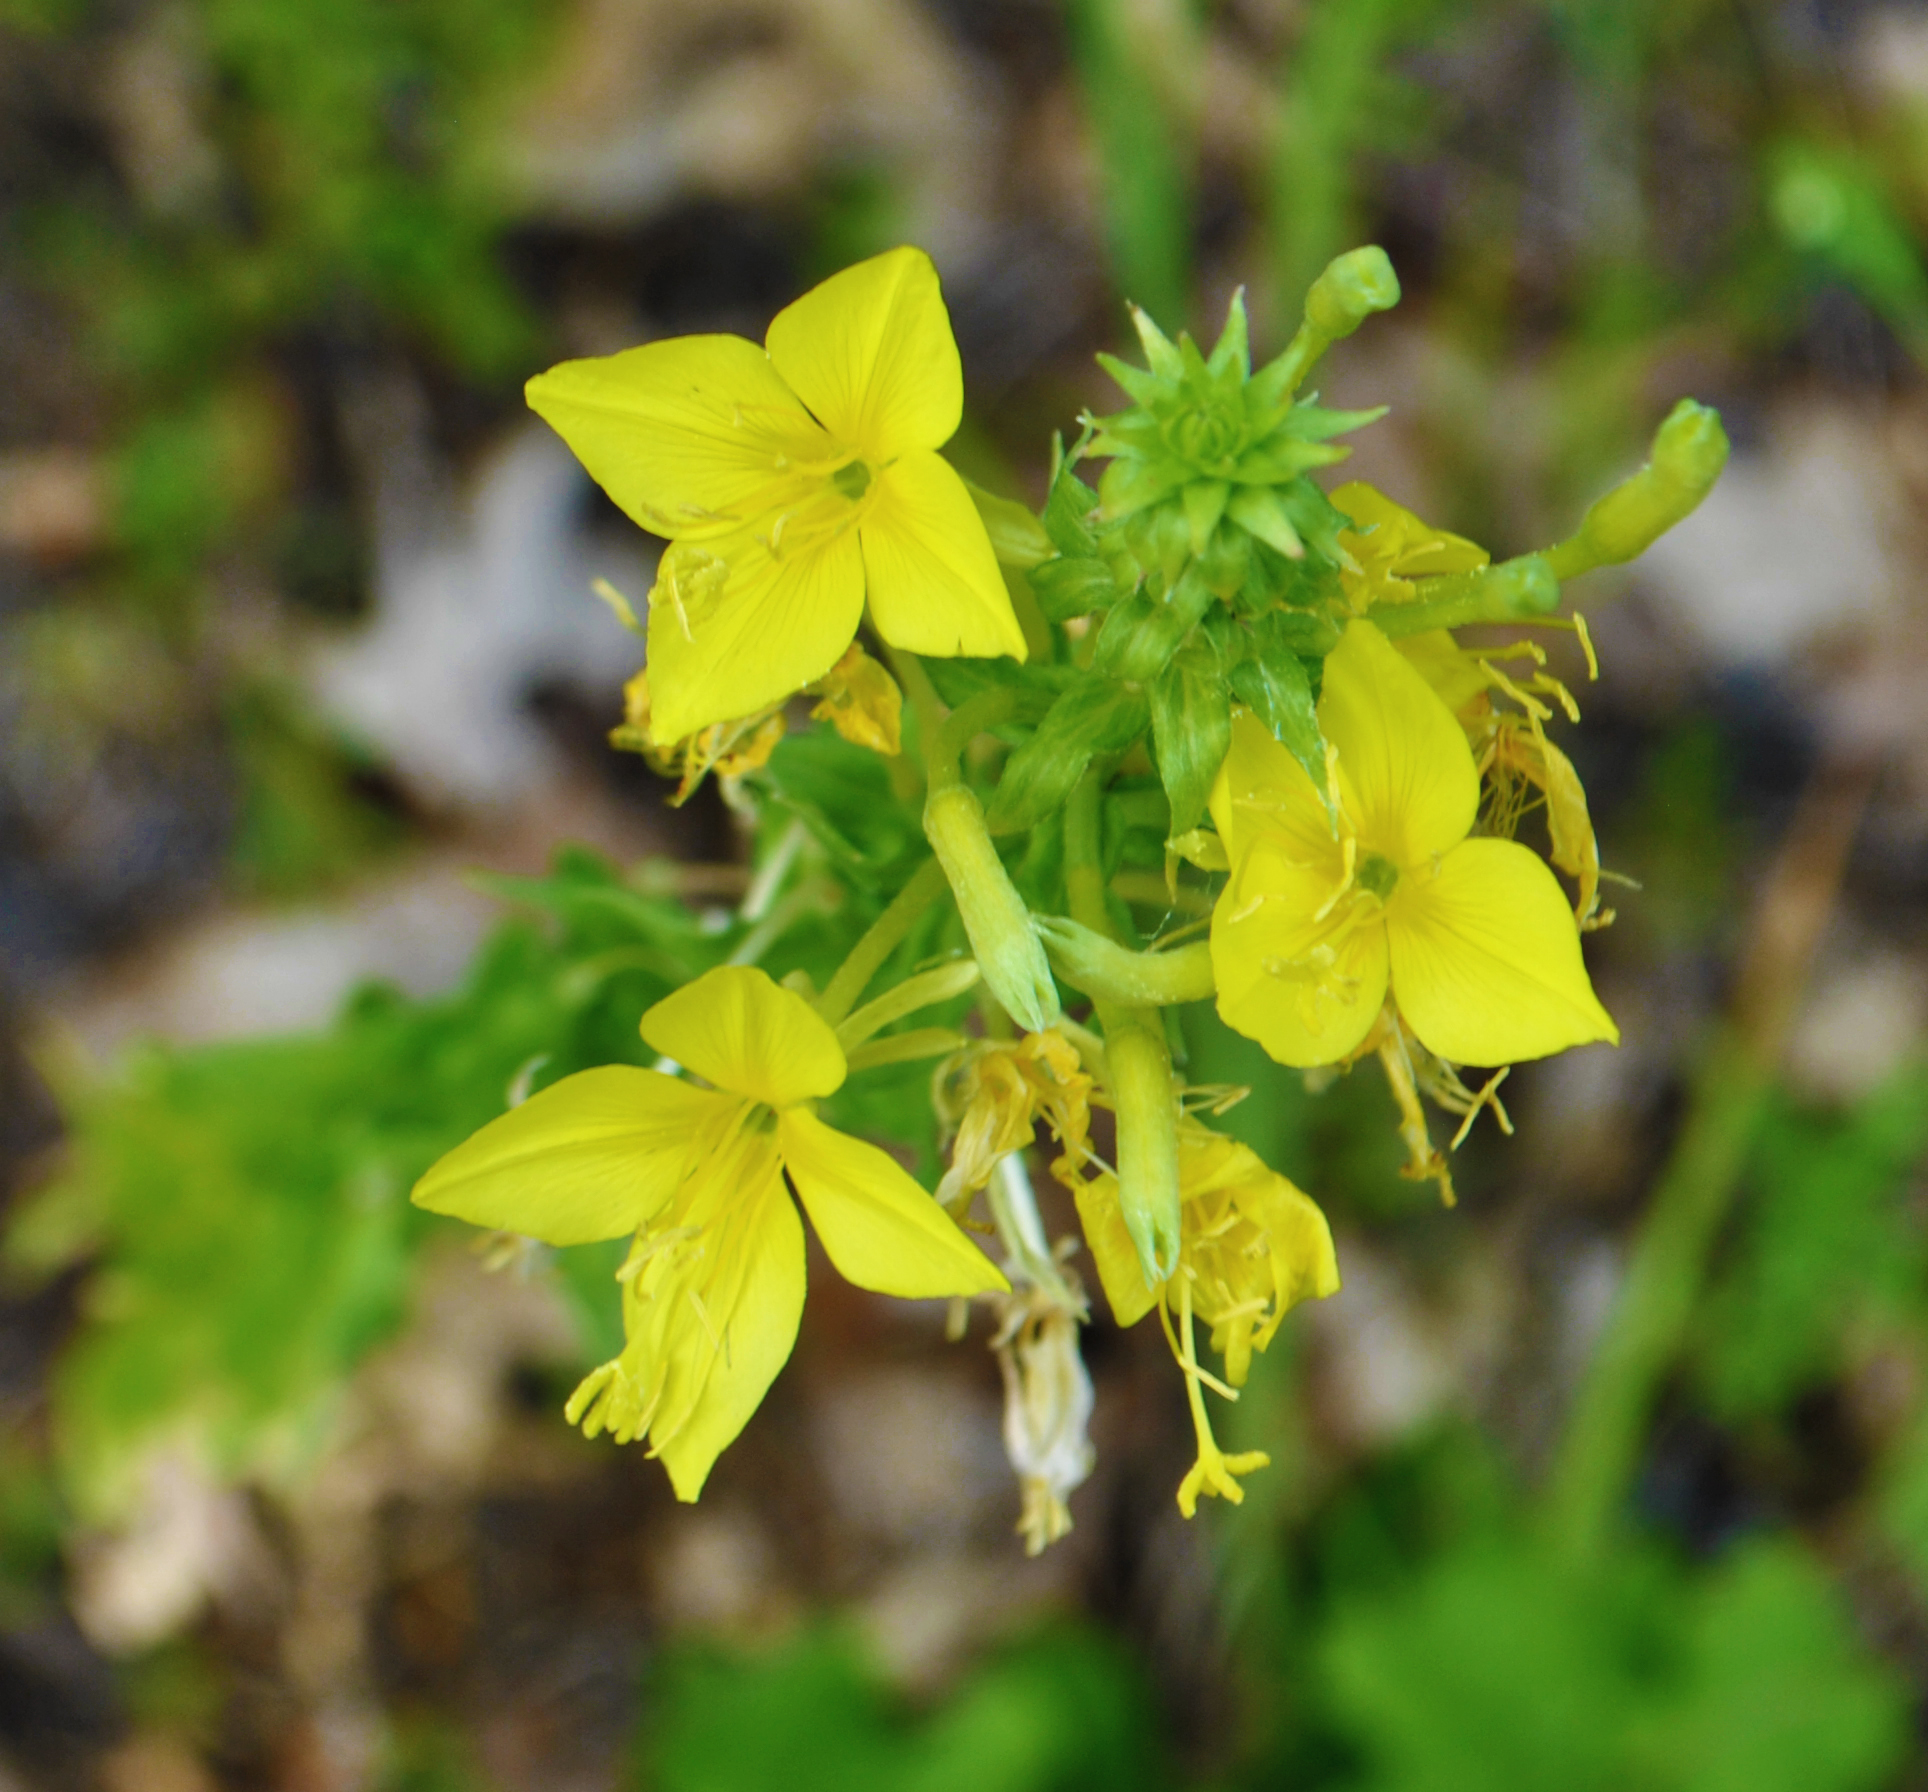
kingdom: Plantae
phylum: Tracheophyta
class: Magnoliopsida
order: Myrtales
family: Onagraceae
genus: Oenothera
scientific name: Oenothera clelandii
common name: Cleland's evening-primrose
